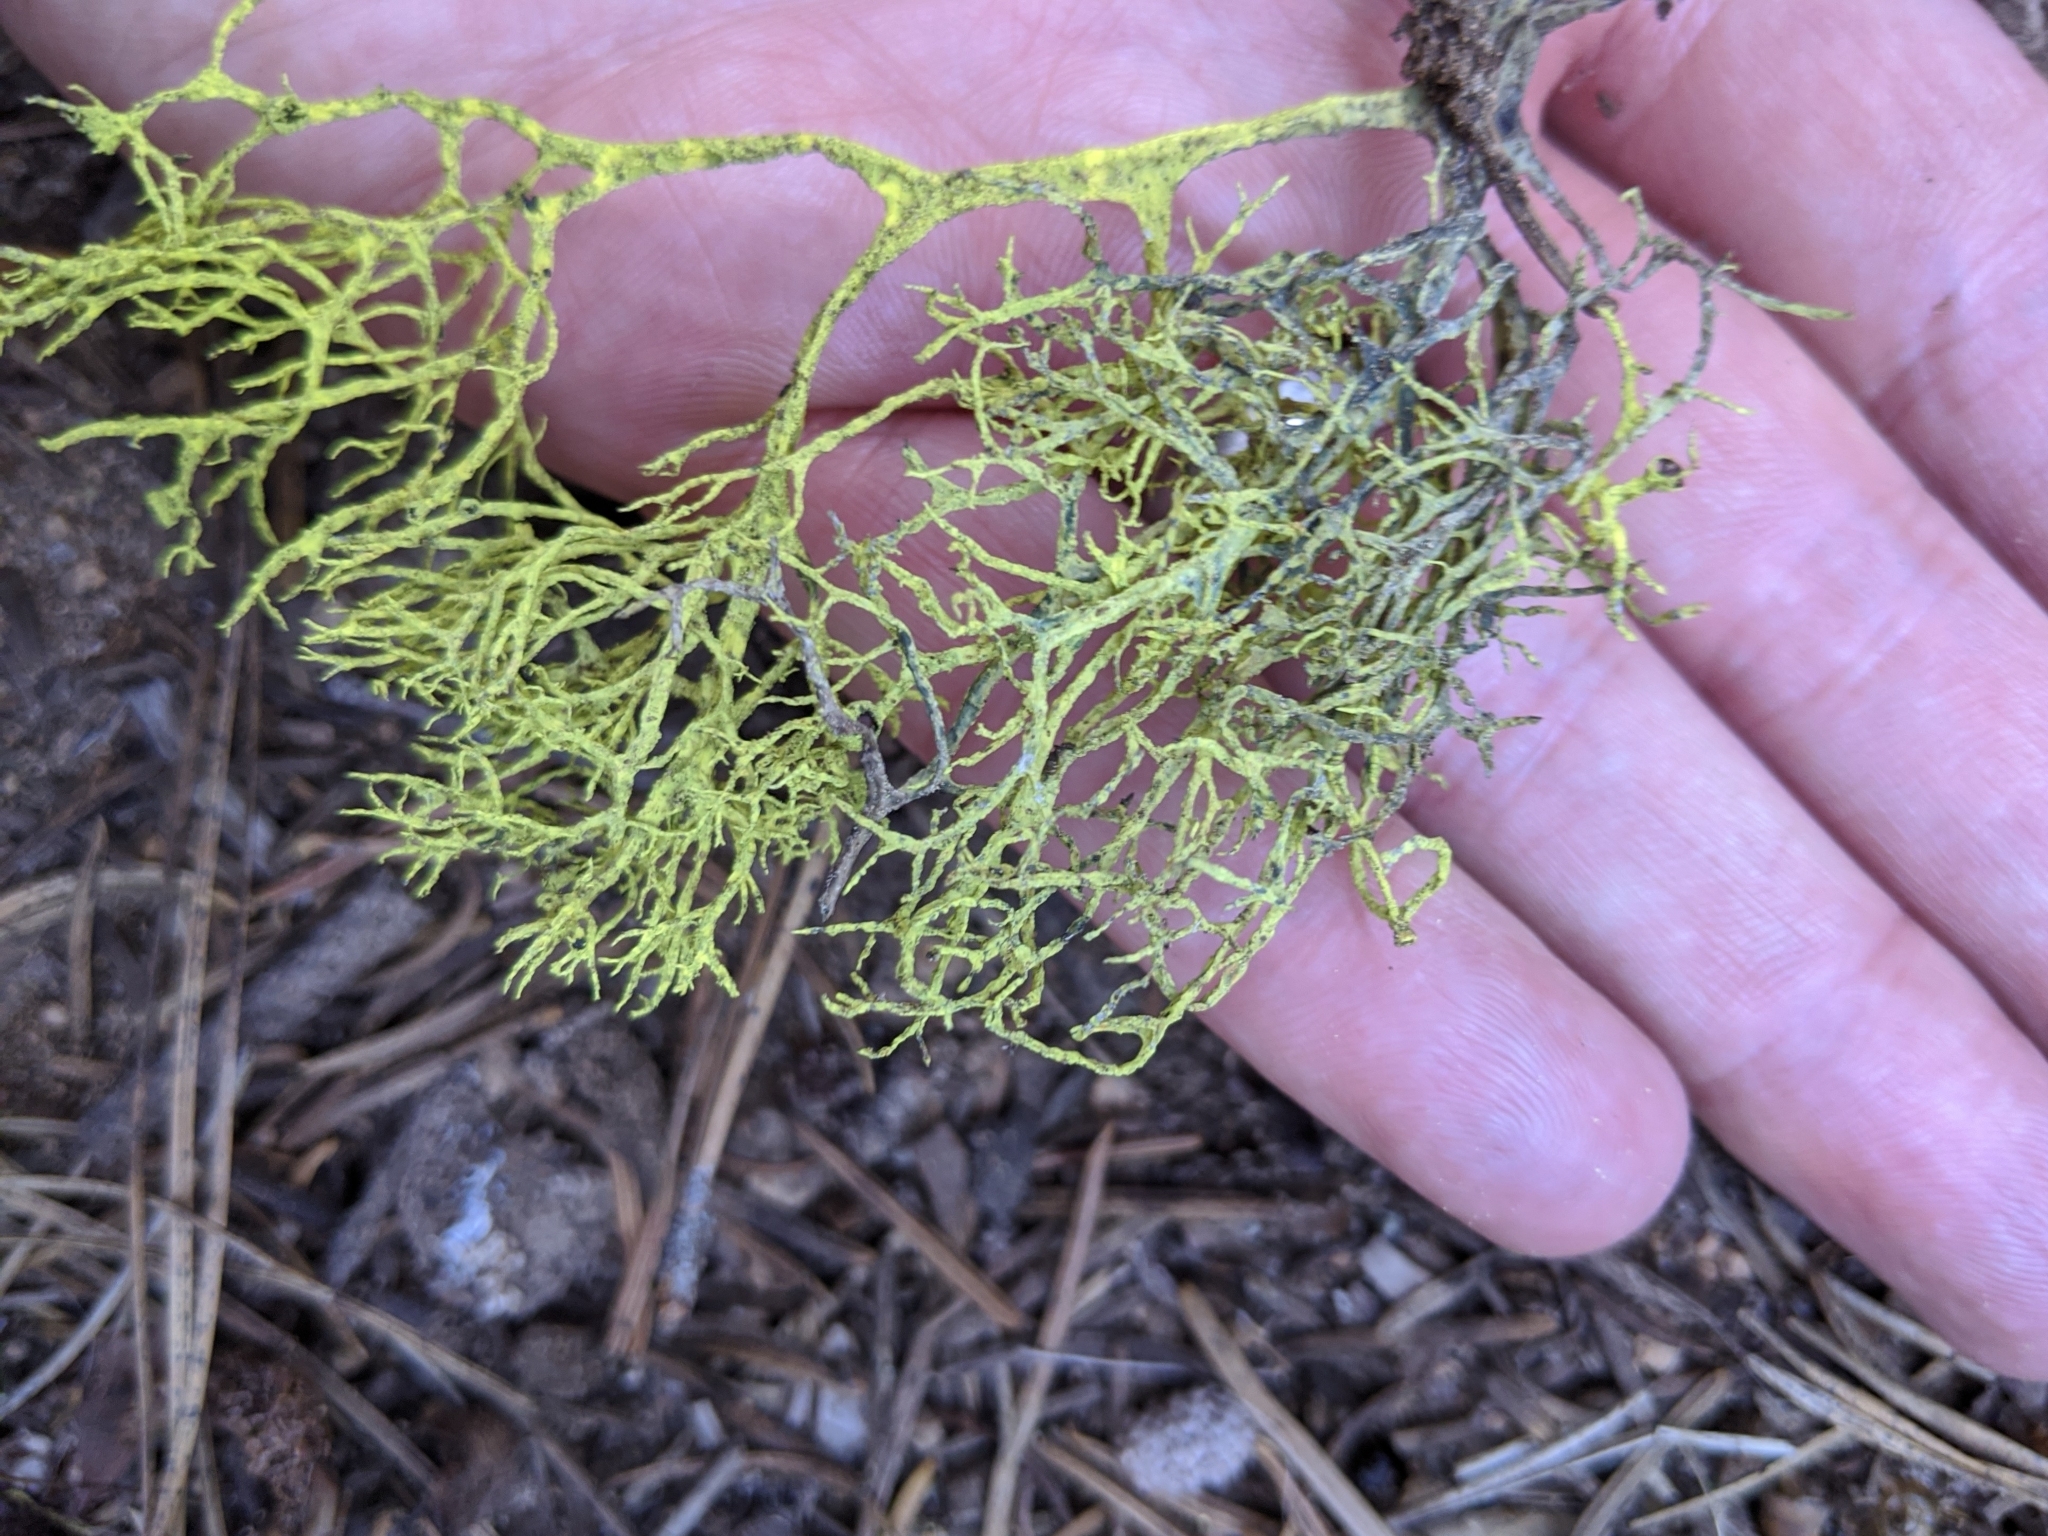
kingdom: Fungi
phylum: Ascomycota
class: Lecanoromycetes
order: Lecanorales
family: Parmeliaceae
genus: Letharia
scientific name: Letharia
